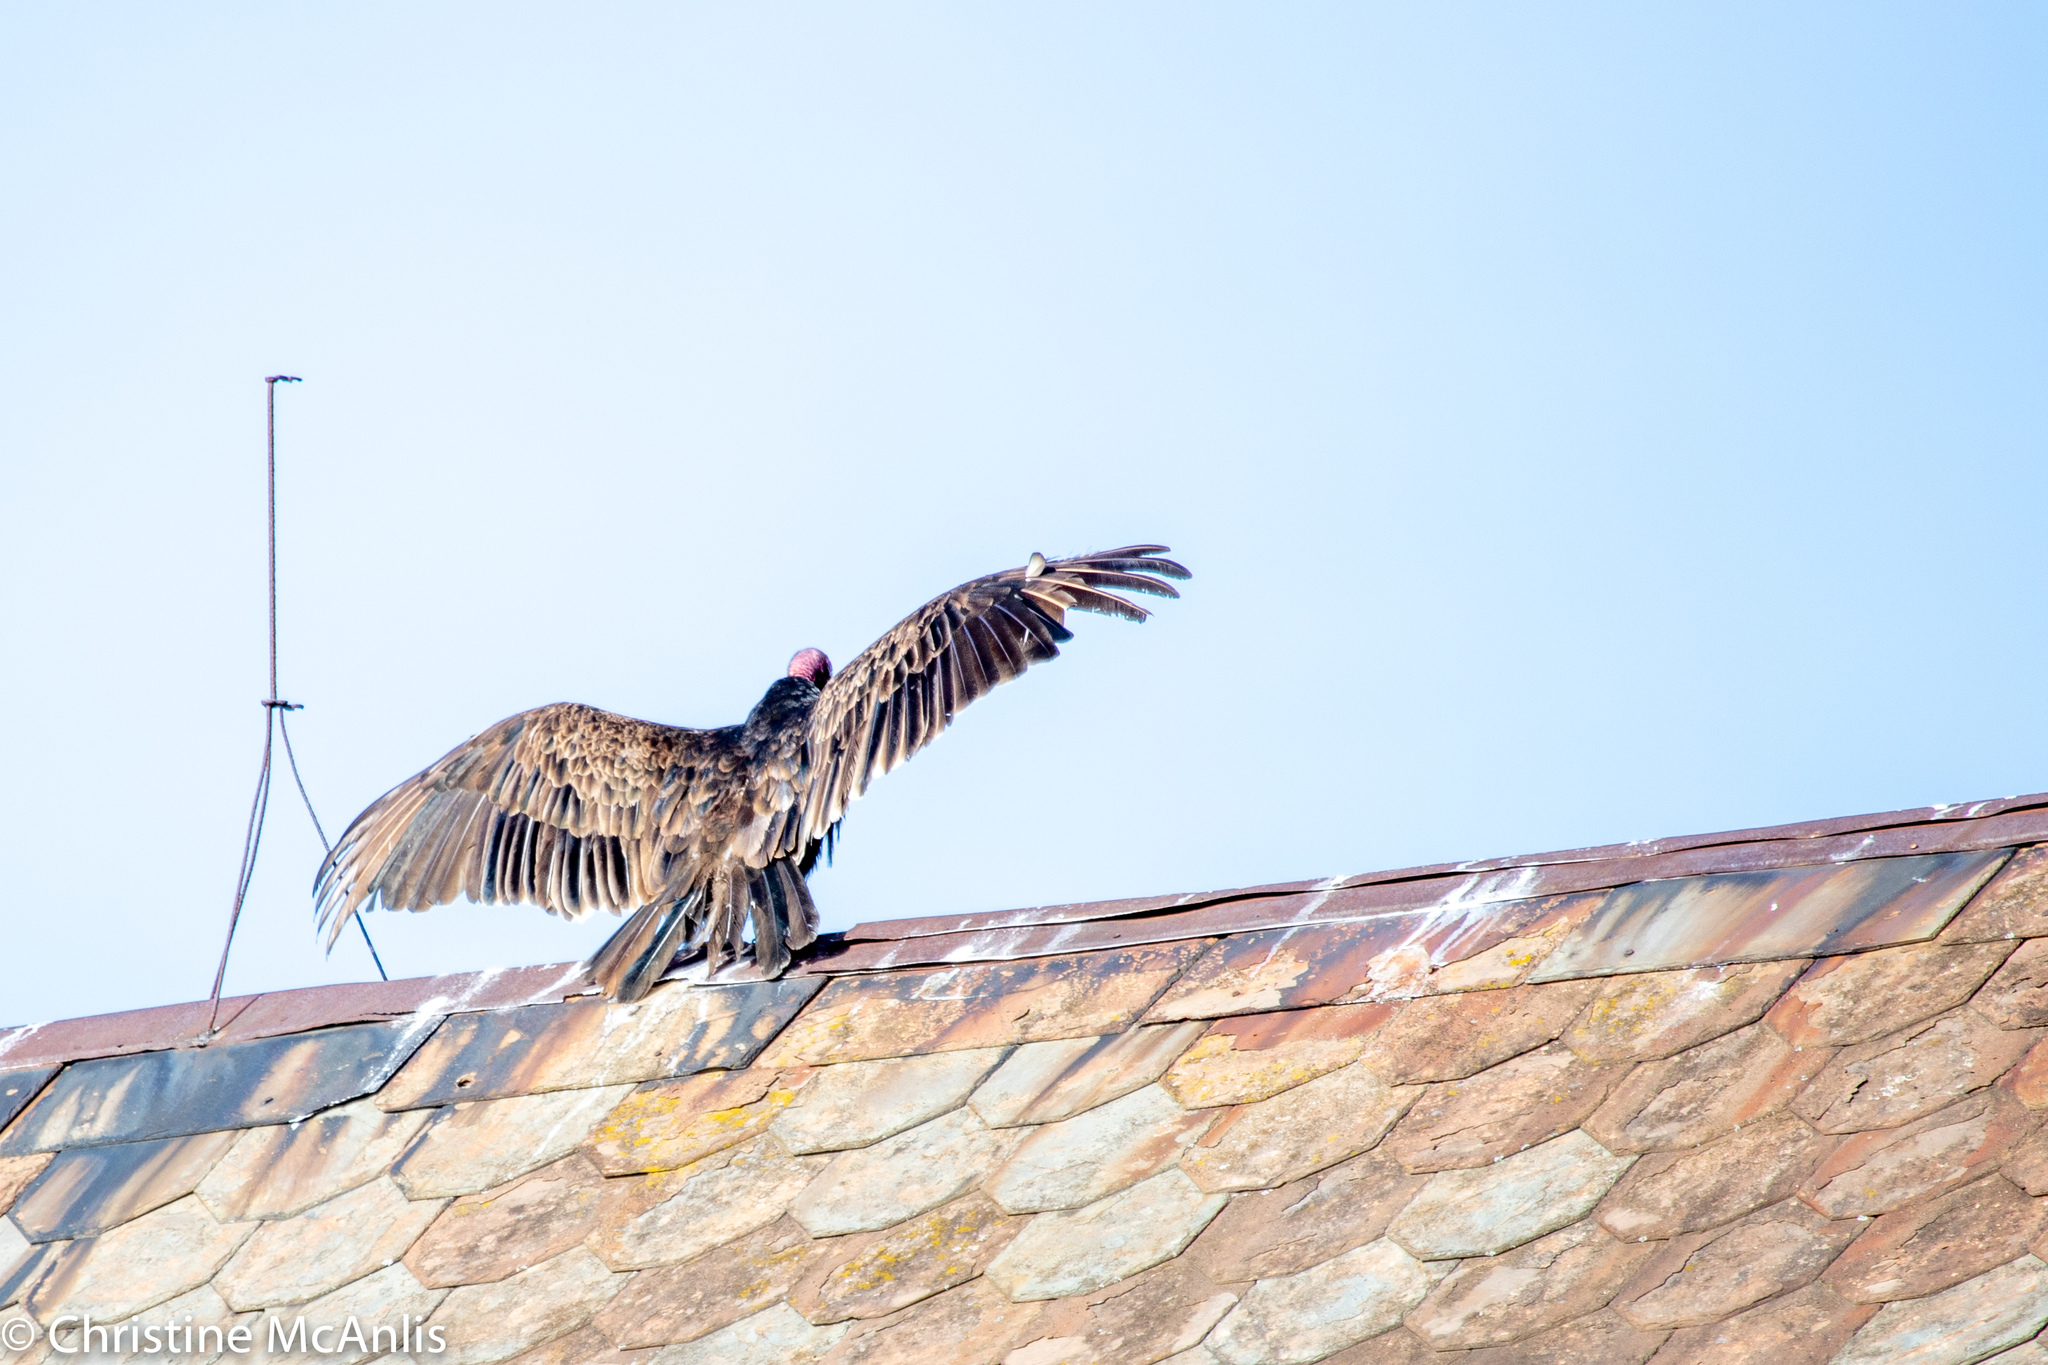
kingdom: Animalia
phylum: Chordata
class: Aves
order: Accipitriformes
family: Cathartidae
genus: Cathartes
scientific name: Cathartes aura
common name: Turkey vulture
